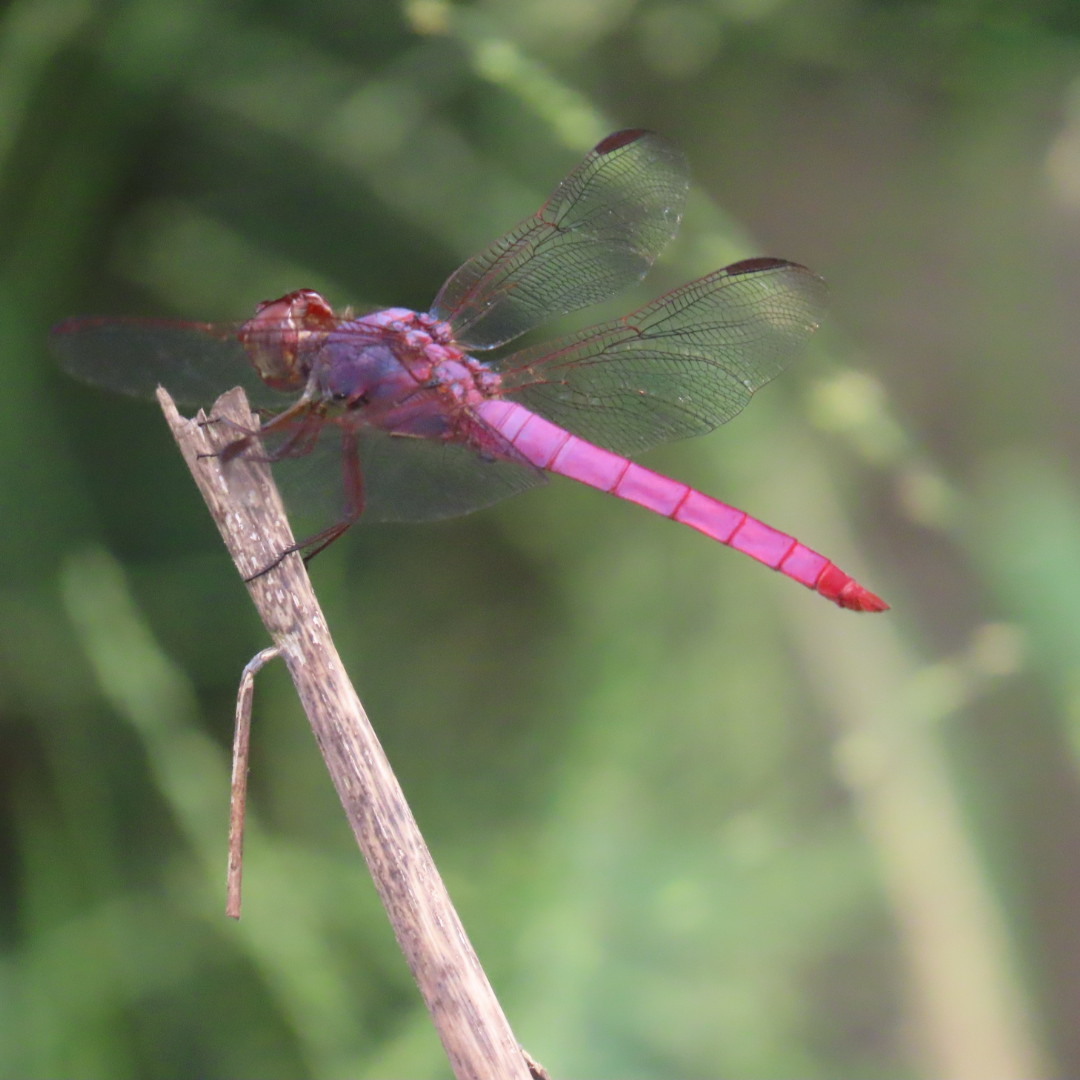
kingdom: Animalia
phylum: Arthropoda
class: Insecta
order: Odonata
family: Libellulidae
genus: Orthemis
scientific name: Orthemis ferruginea
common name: Roseate skimmer
